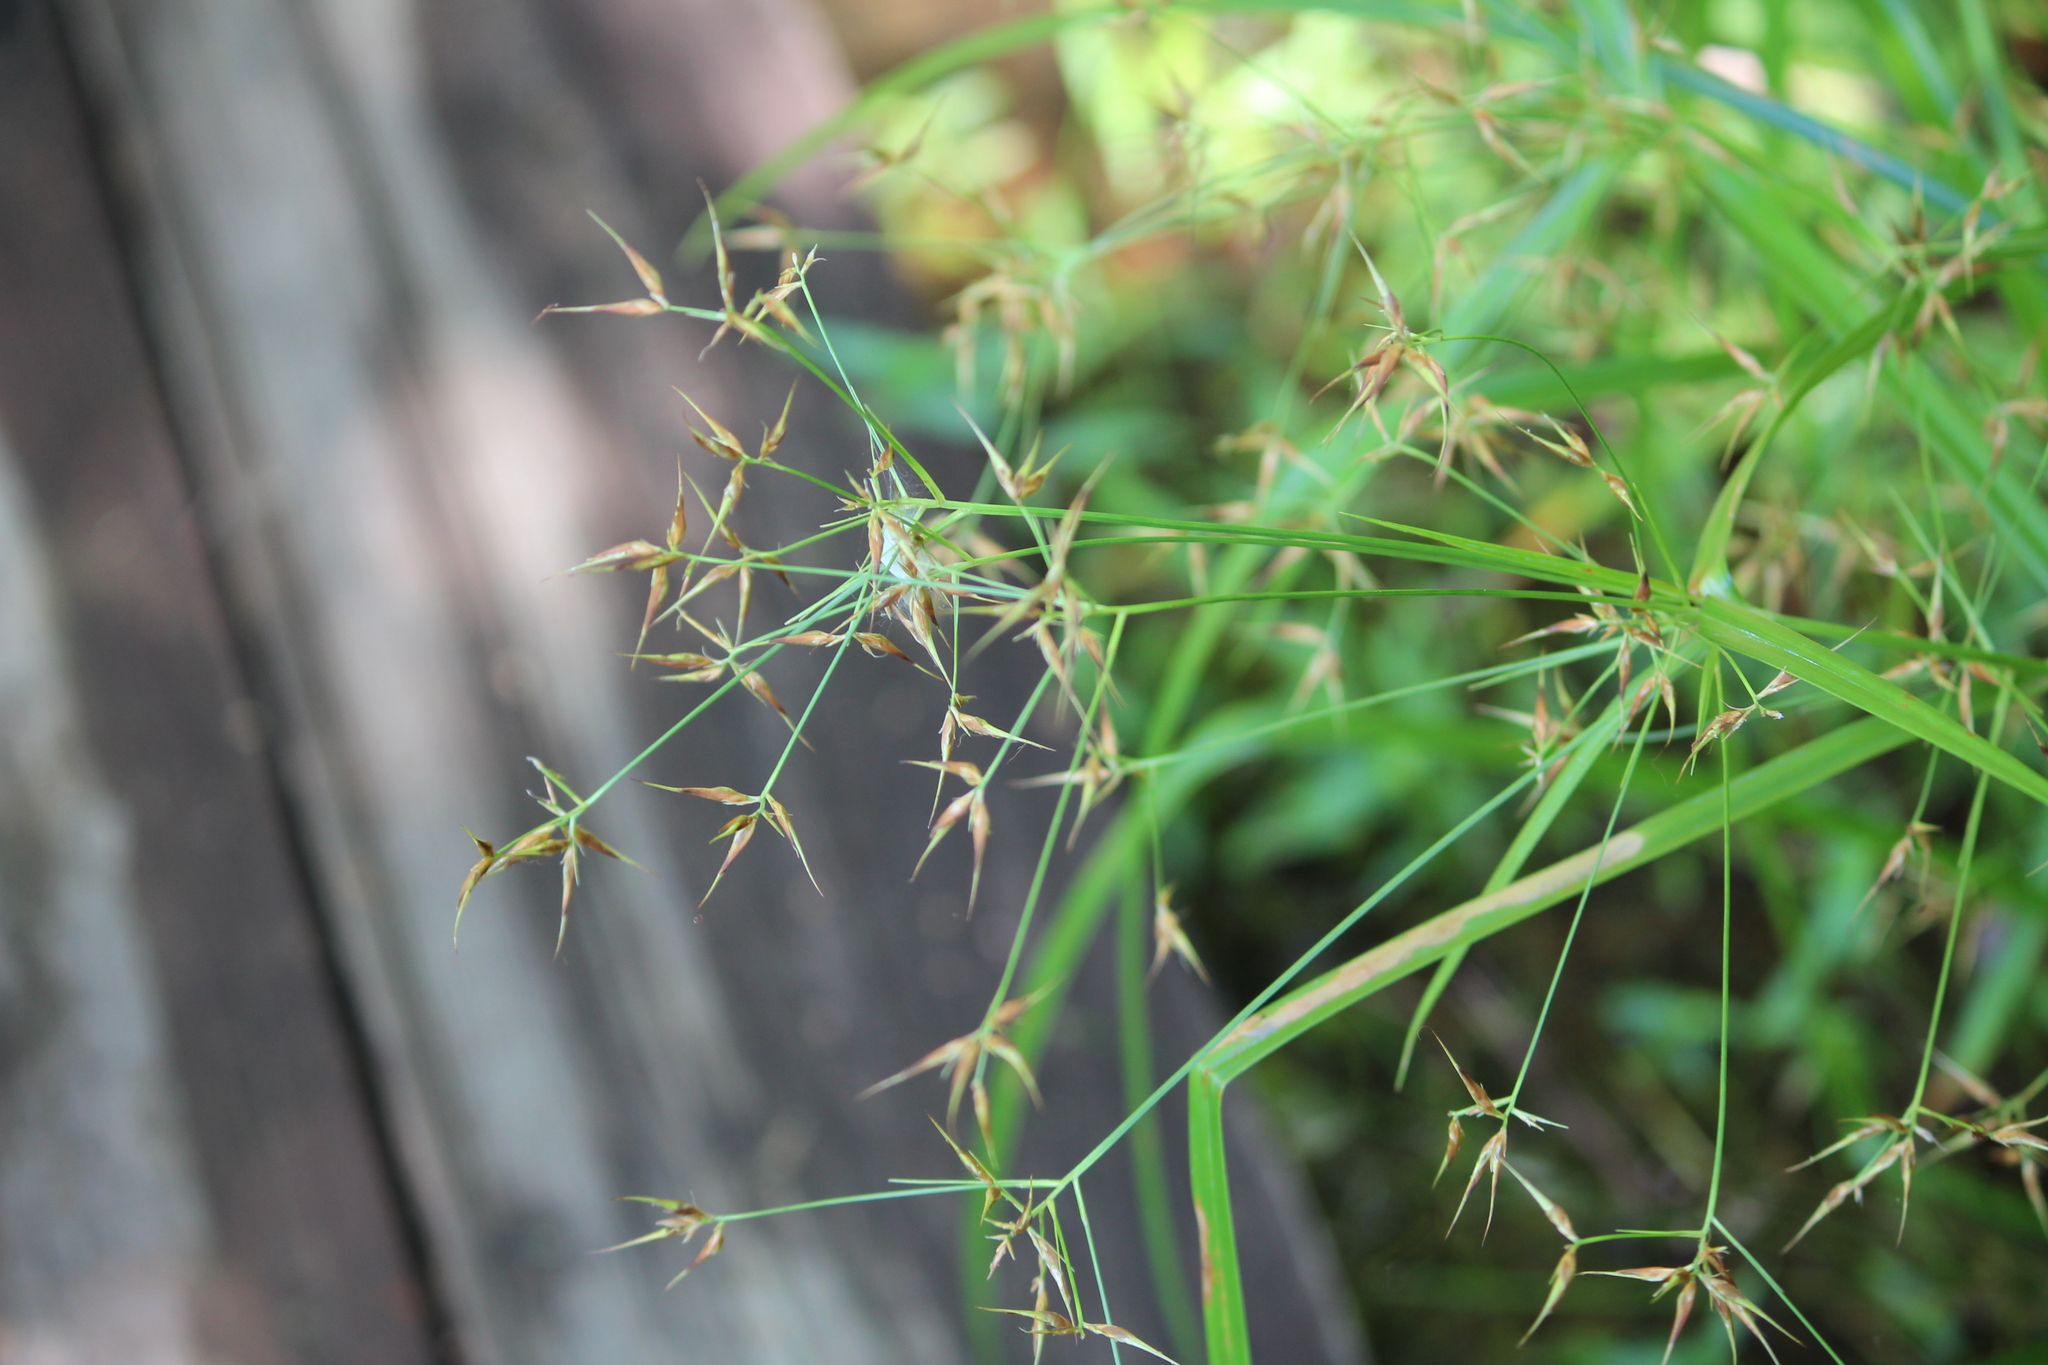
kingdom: Plantae
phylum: Tracheophyta
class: Liliopsida
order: Poales
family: Cyperaceae
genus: Rhynchospora
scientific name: Rhynchospora corniculata
